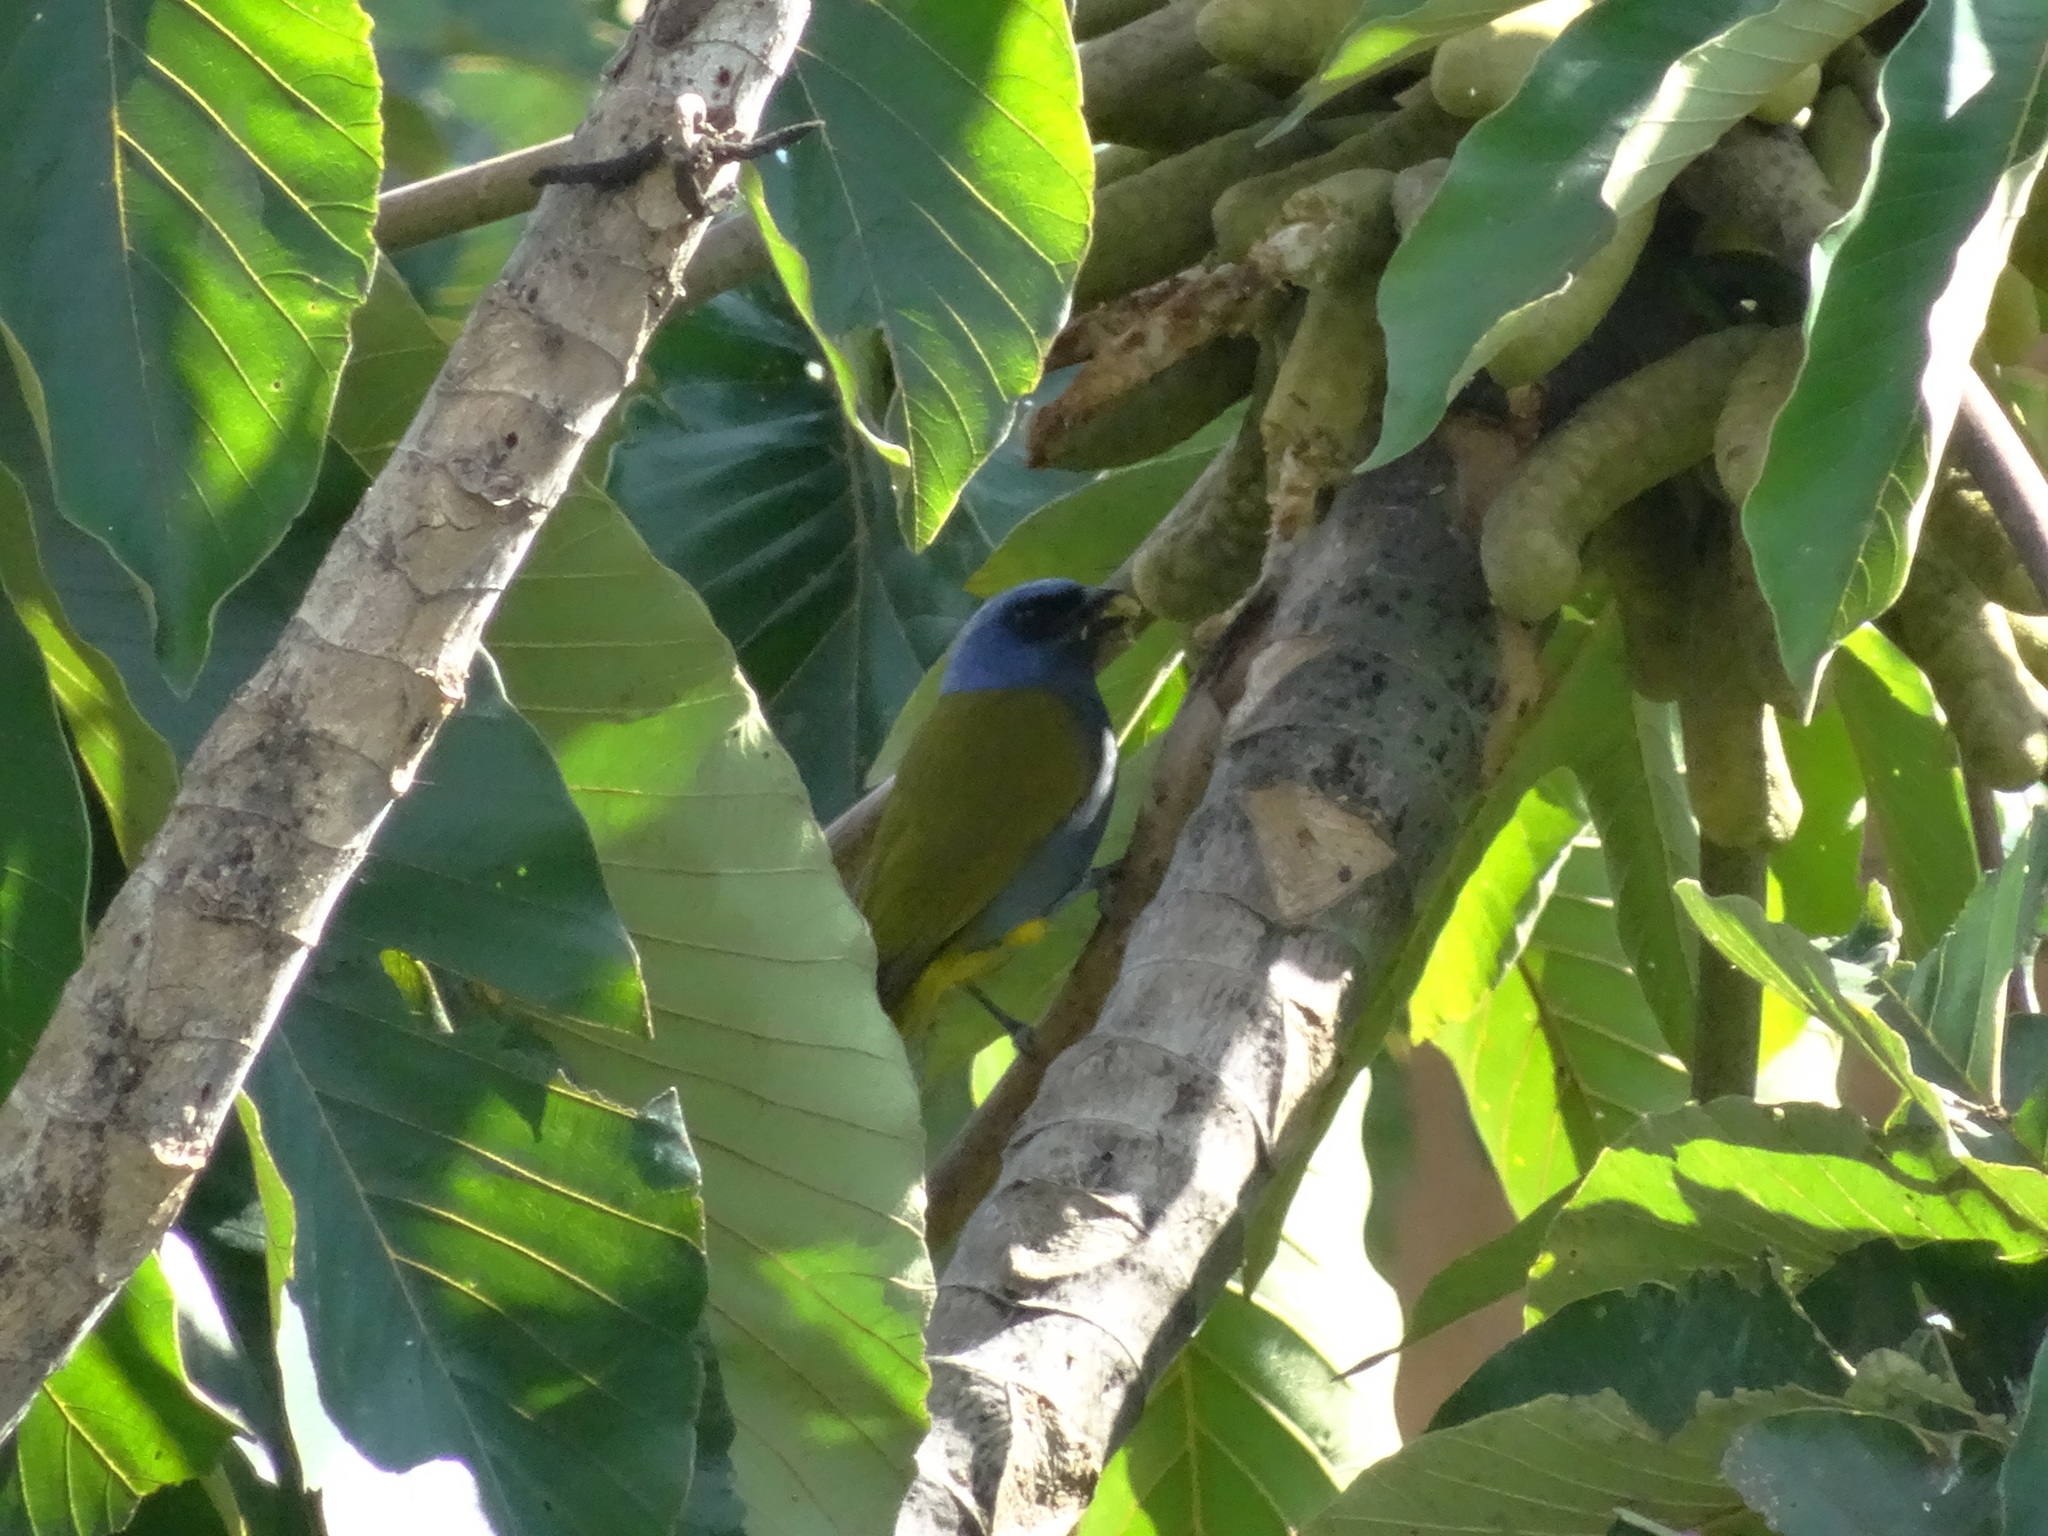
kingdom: Animalia
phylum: Chordata
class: Aves
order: Passeriformes
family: Thraupidae
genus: Sporathraupis
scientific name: Sporathraupis cyanocephala
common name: Blue-capped tanager
